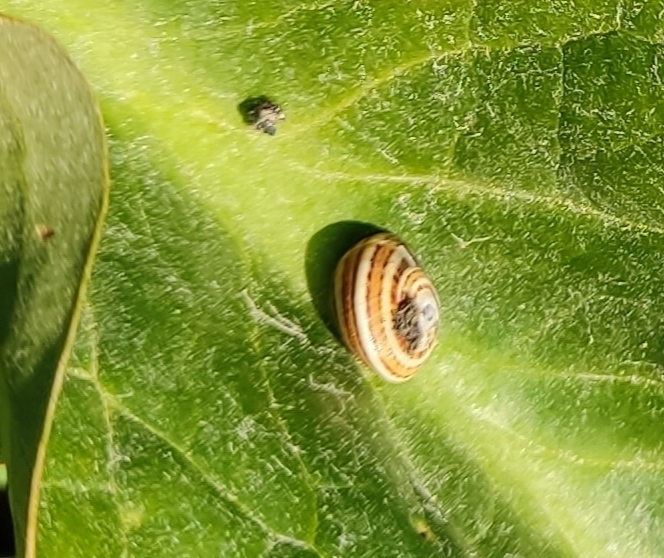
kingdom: Animalia
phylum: Mollusca
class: Gastropoda
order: Stylommatophora
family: Helicidae
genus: Theba
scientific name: Theba pisana
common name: White snail
